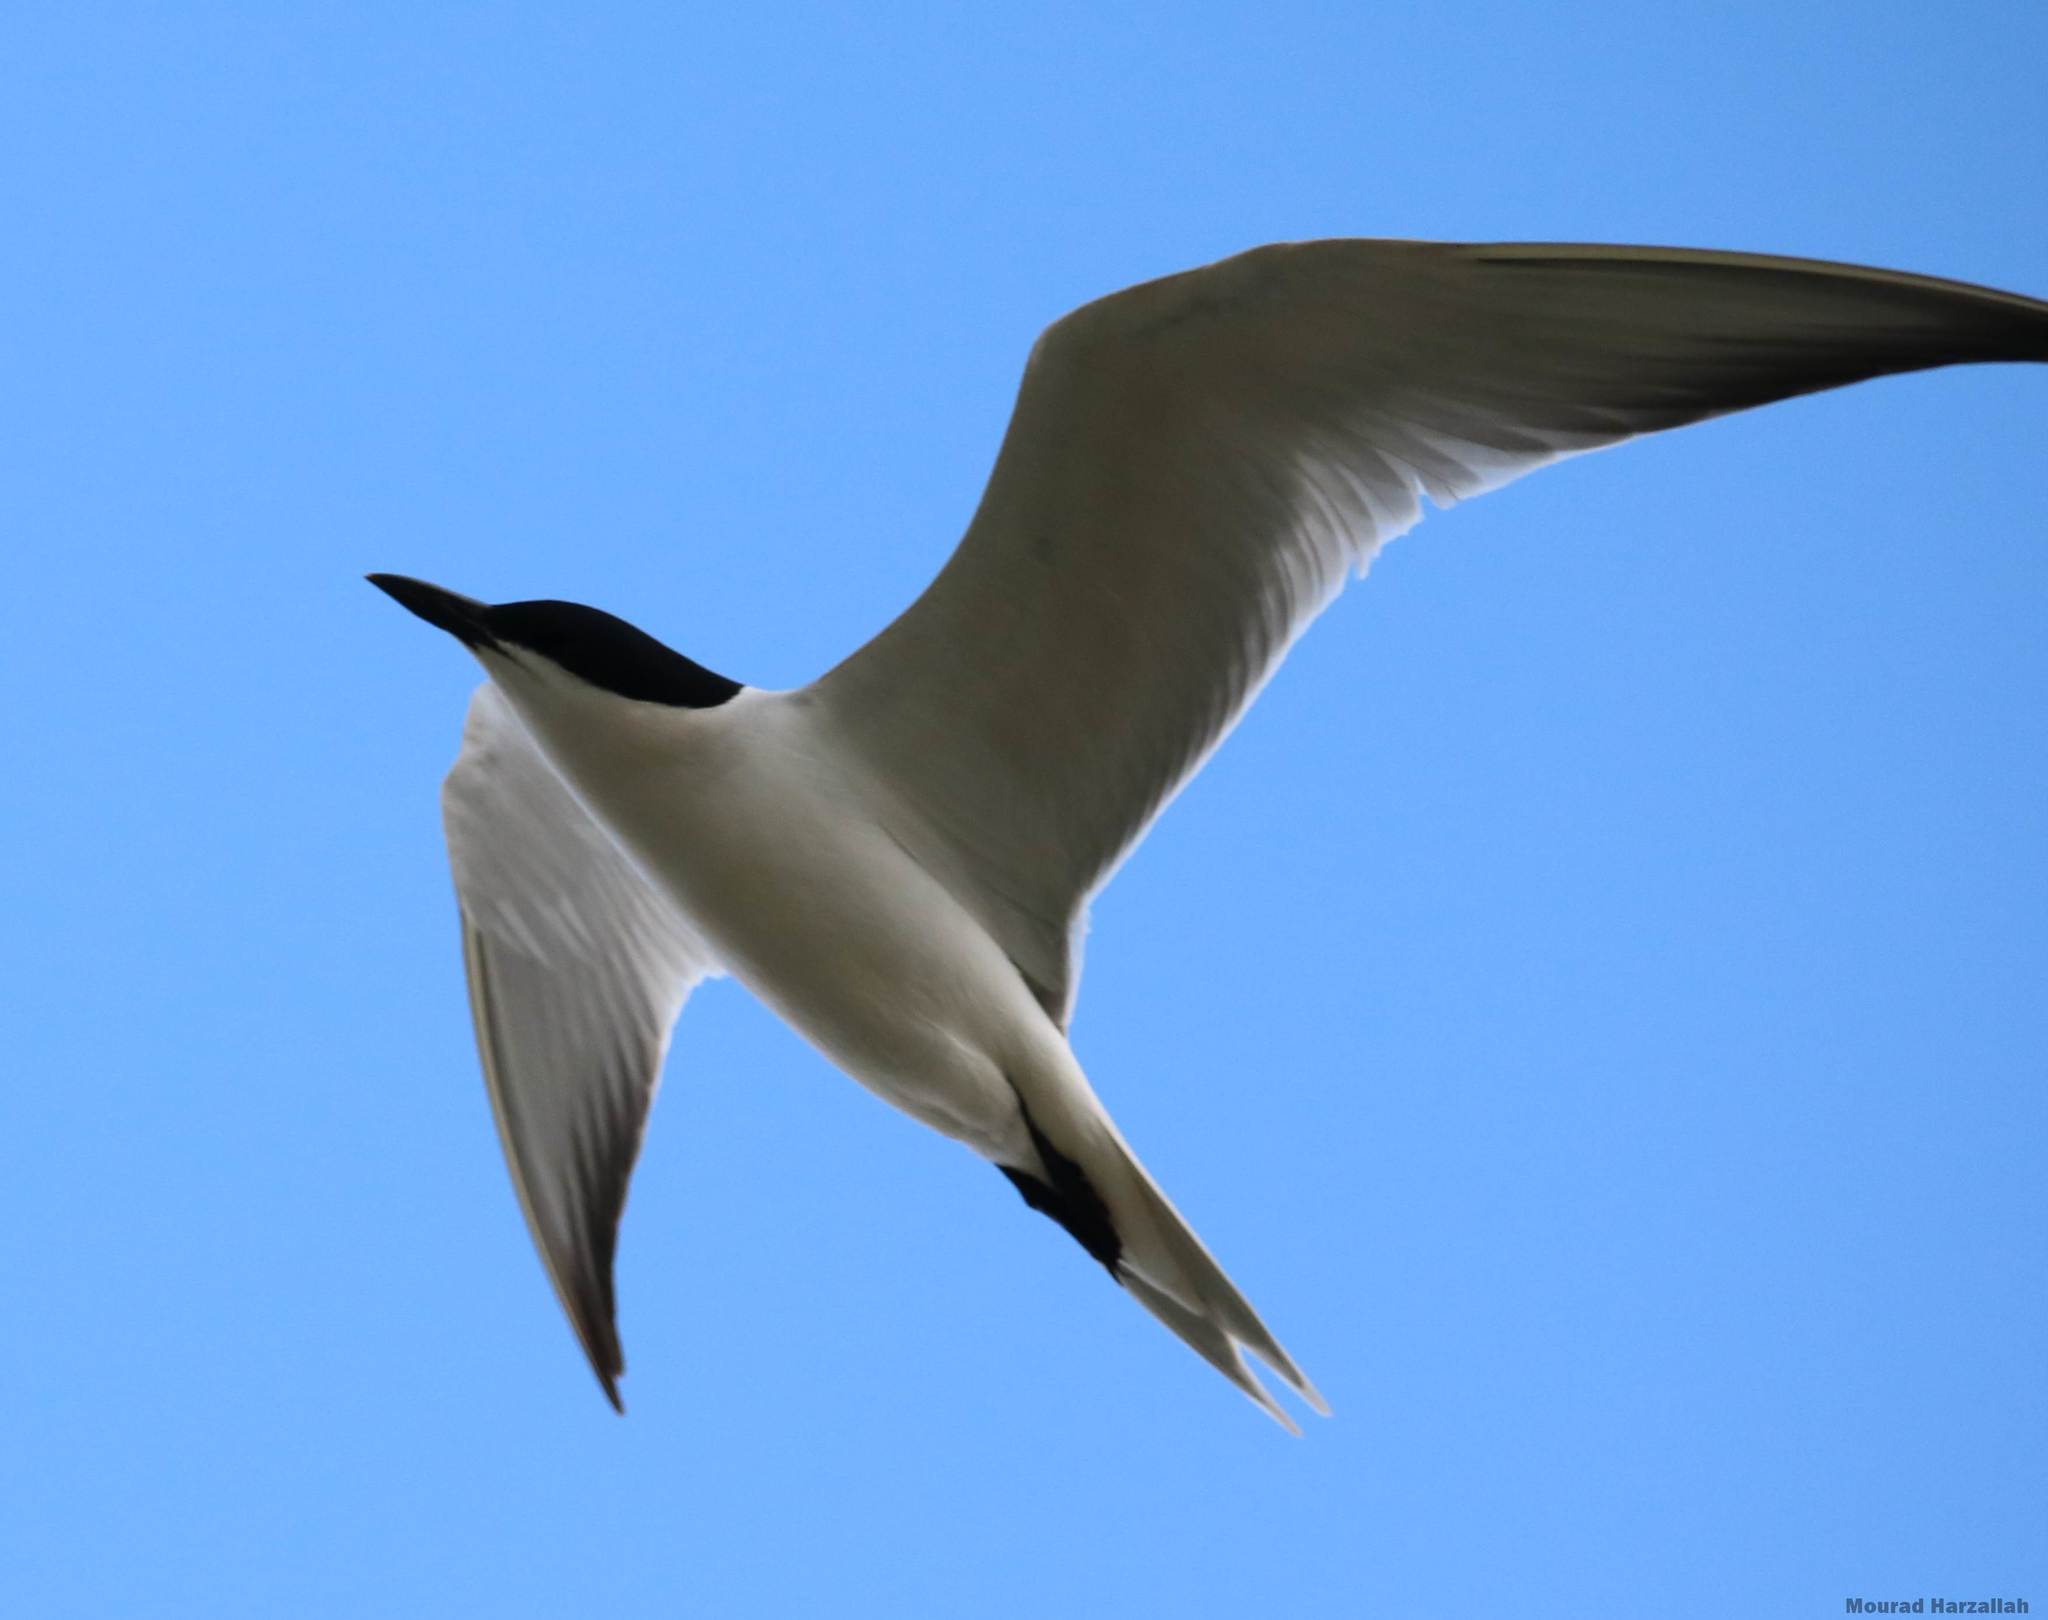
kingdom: Animalia
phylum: Chordata
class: Aves
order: Charadriiformes
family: Laridae
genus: Gelochelidon
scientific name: Gelochelidon nilotica
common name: Gull-billed tern
